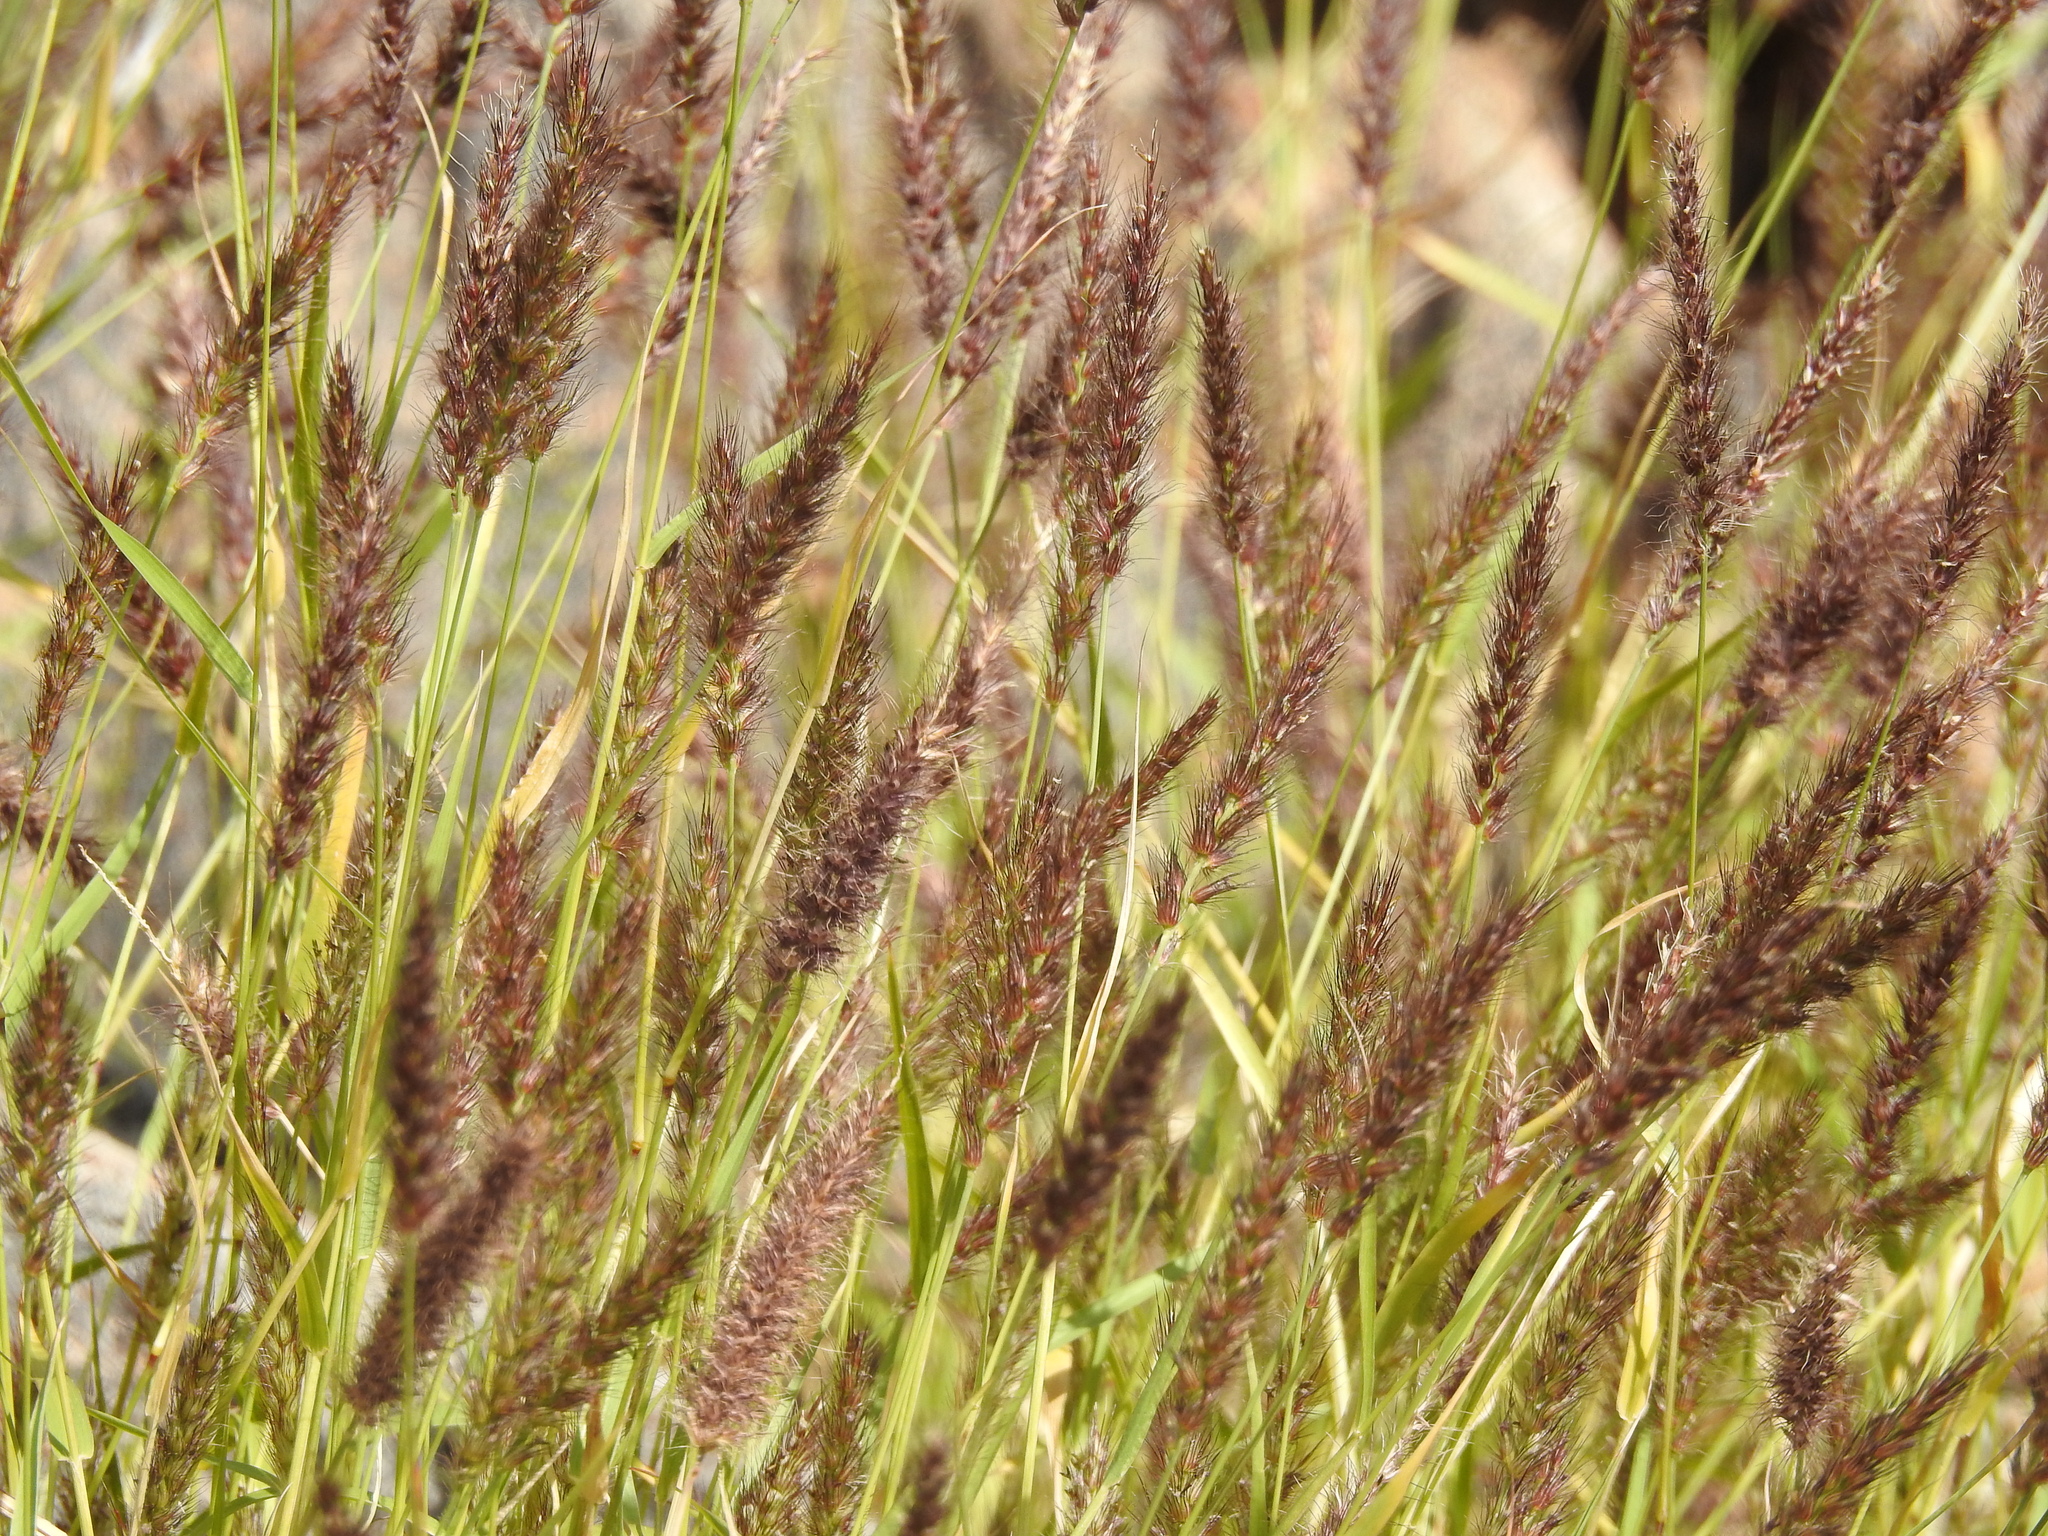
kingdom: Plantae
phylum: Tracheophyta
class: Liliopsida
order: Poales
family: Poaceae
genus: Cenchrus
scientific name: Cenchrus ciliaris
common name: Buffelgrass
